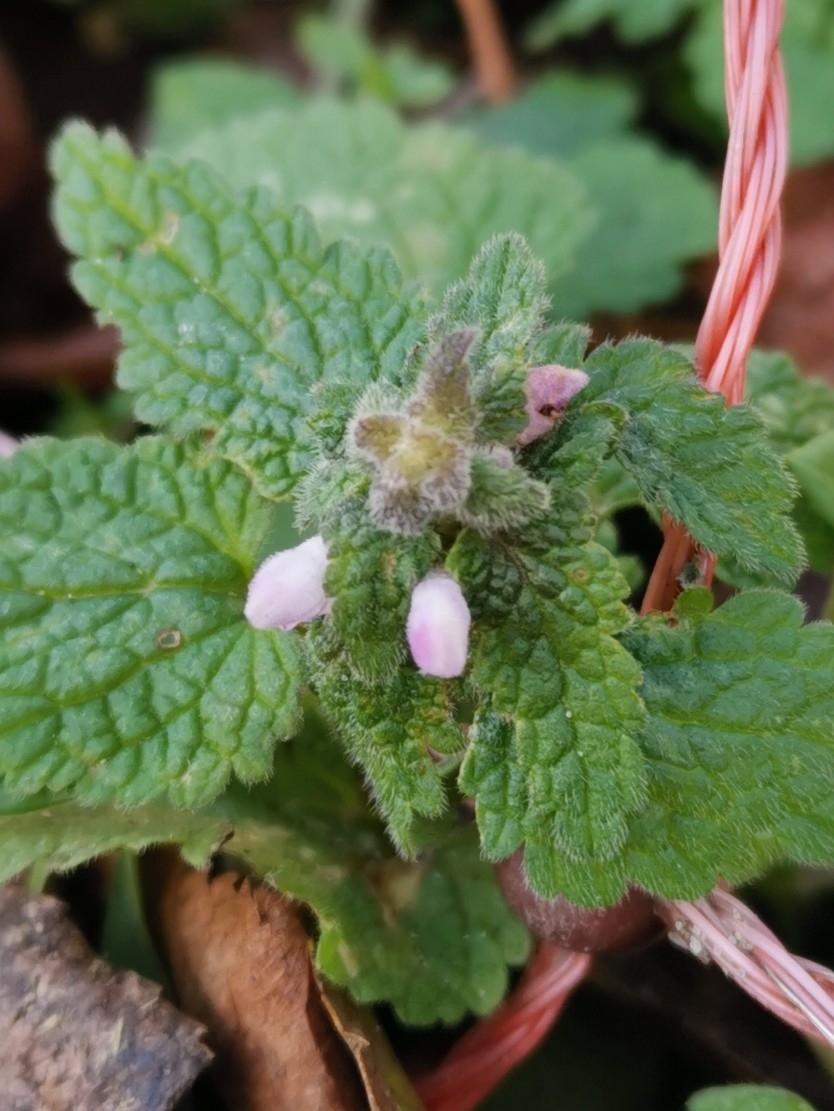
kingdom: Plantae
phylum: Tracheophyta
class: Magnoliopsida
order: Lamiales
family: Lamiaceae
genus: Lamium
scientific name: Lamium purpureum
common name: Red dead-nettle
